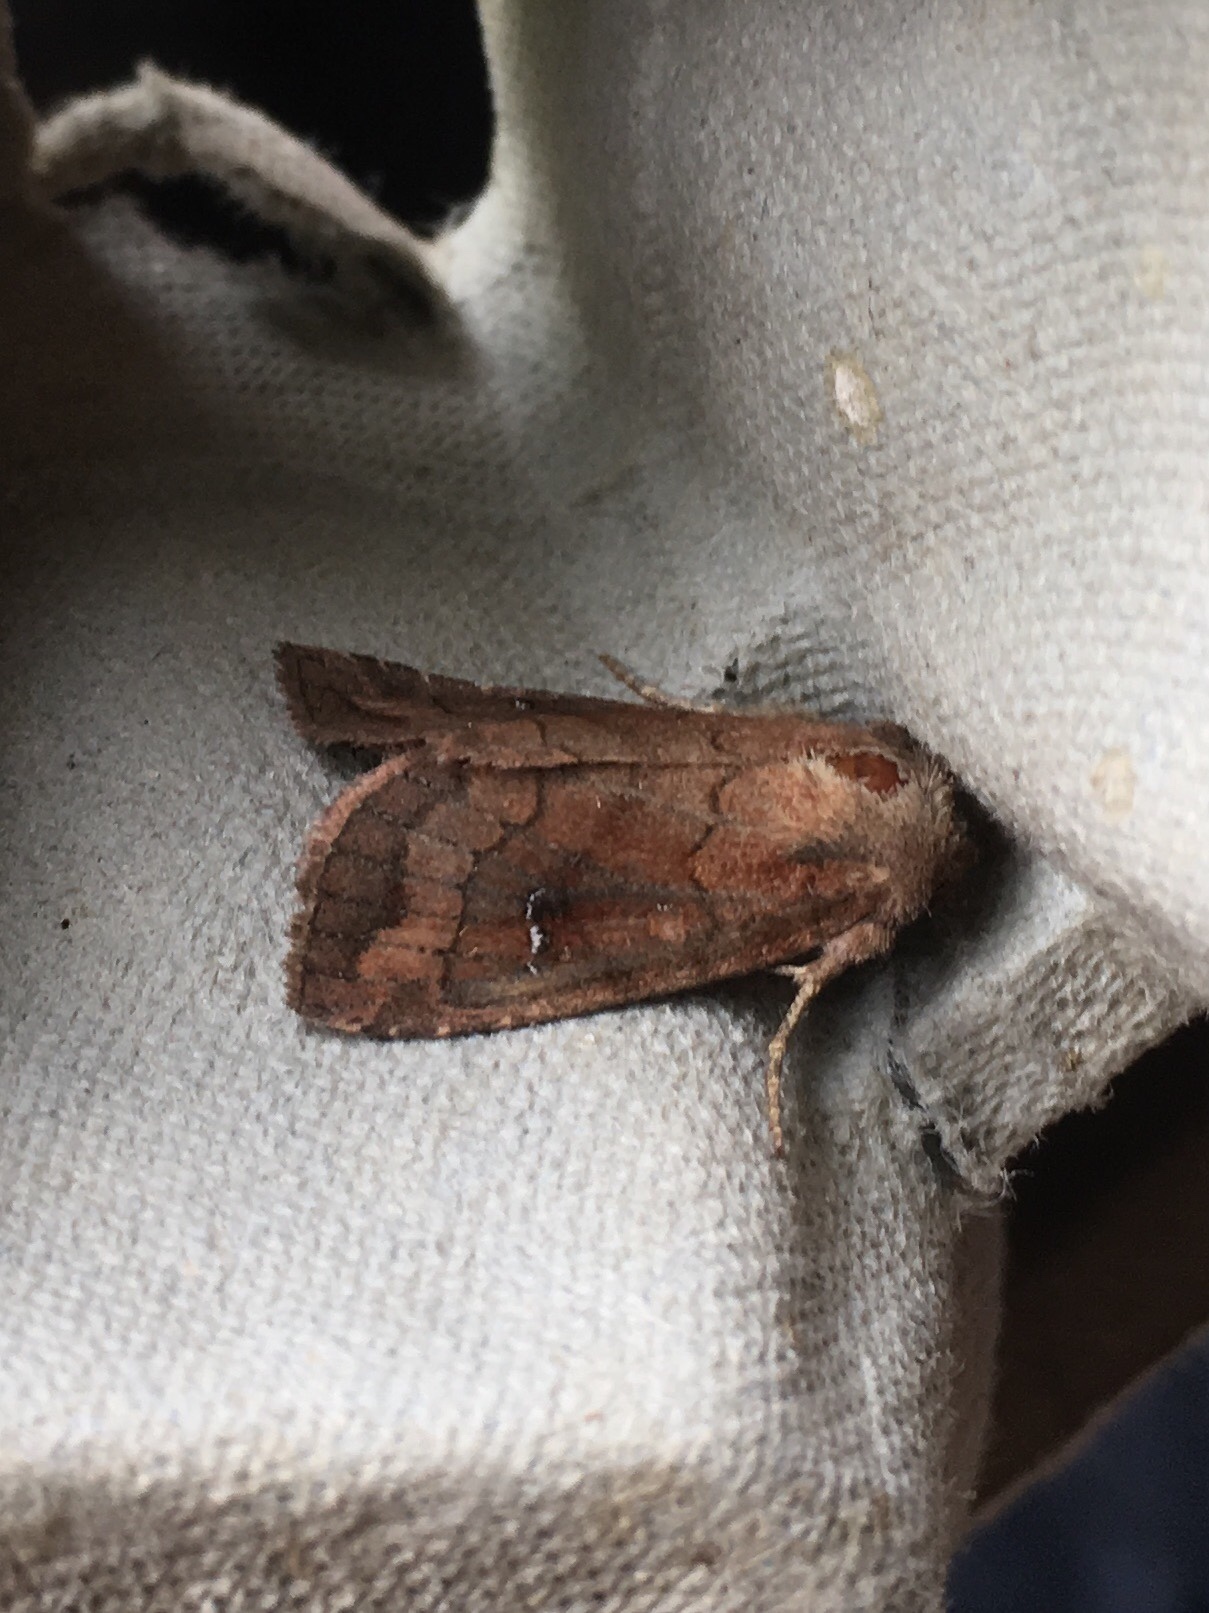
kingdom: Animalia
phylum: Arthropoda
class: Insecta
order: Lepidoptera
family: Noctuidae
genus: Tricholita
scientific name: Tricholita signata
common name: Signate quaker
